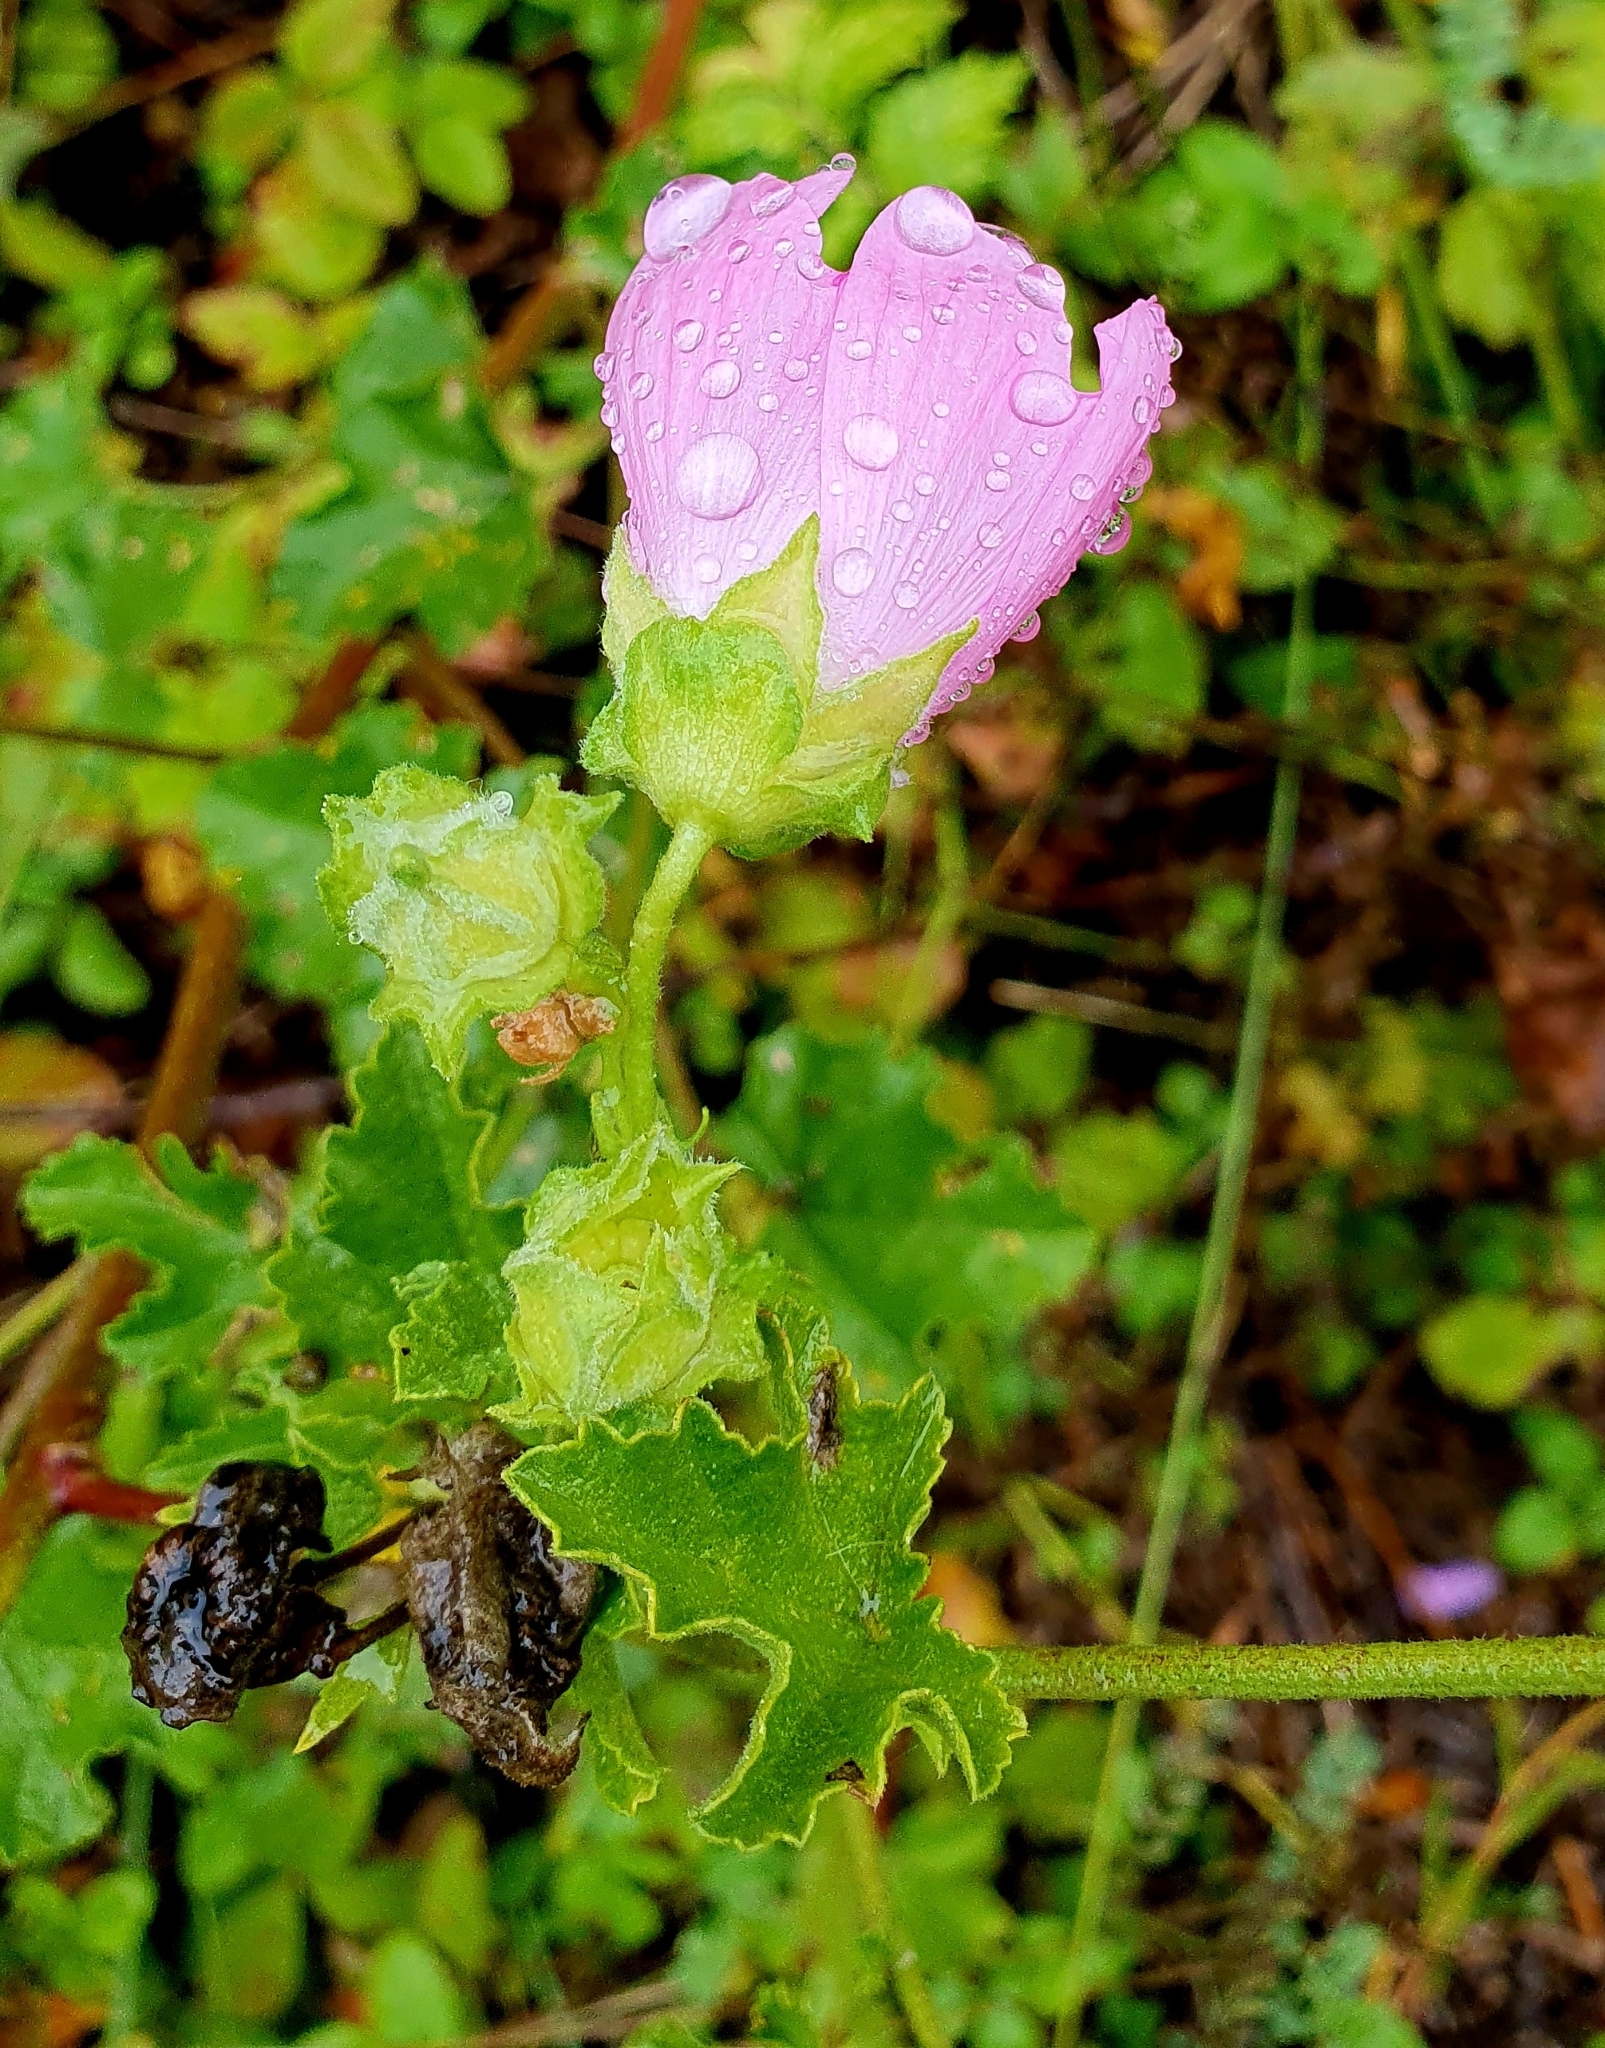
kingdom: Plantae
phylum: Tracheophyta
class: Magnoliopsida
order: Malvales
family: Malvaceae
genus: Malva
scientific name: Malva thuringiaca
